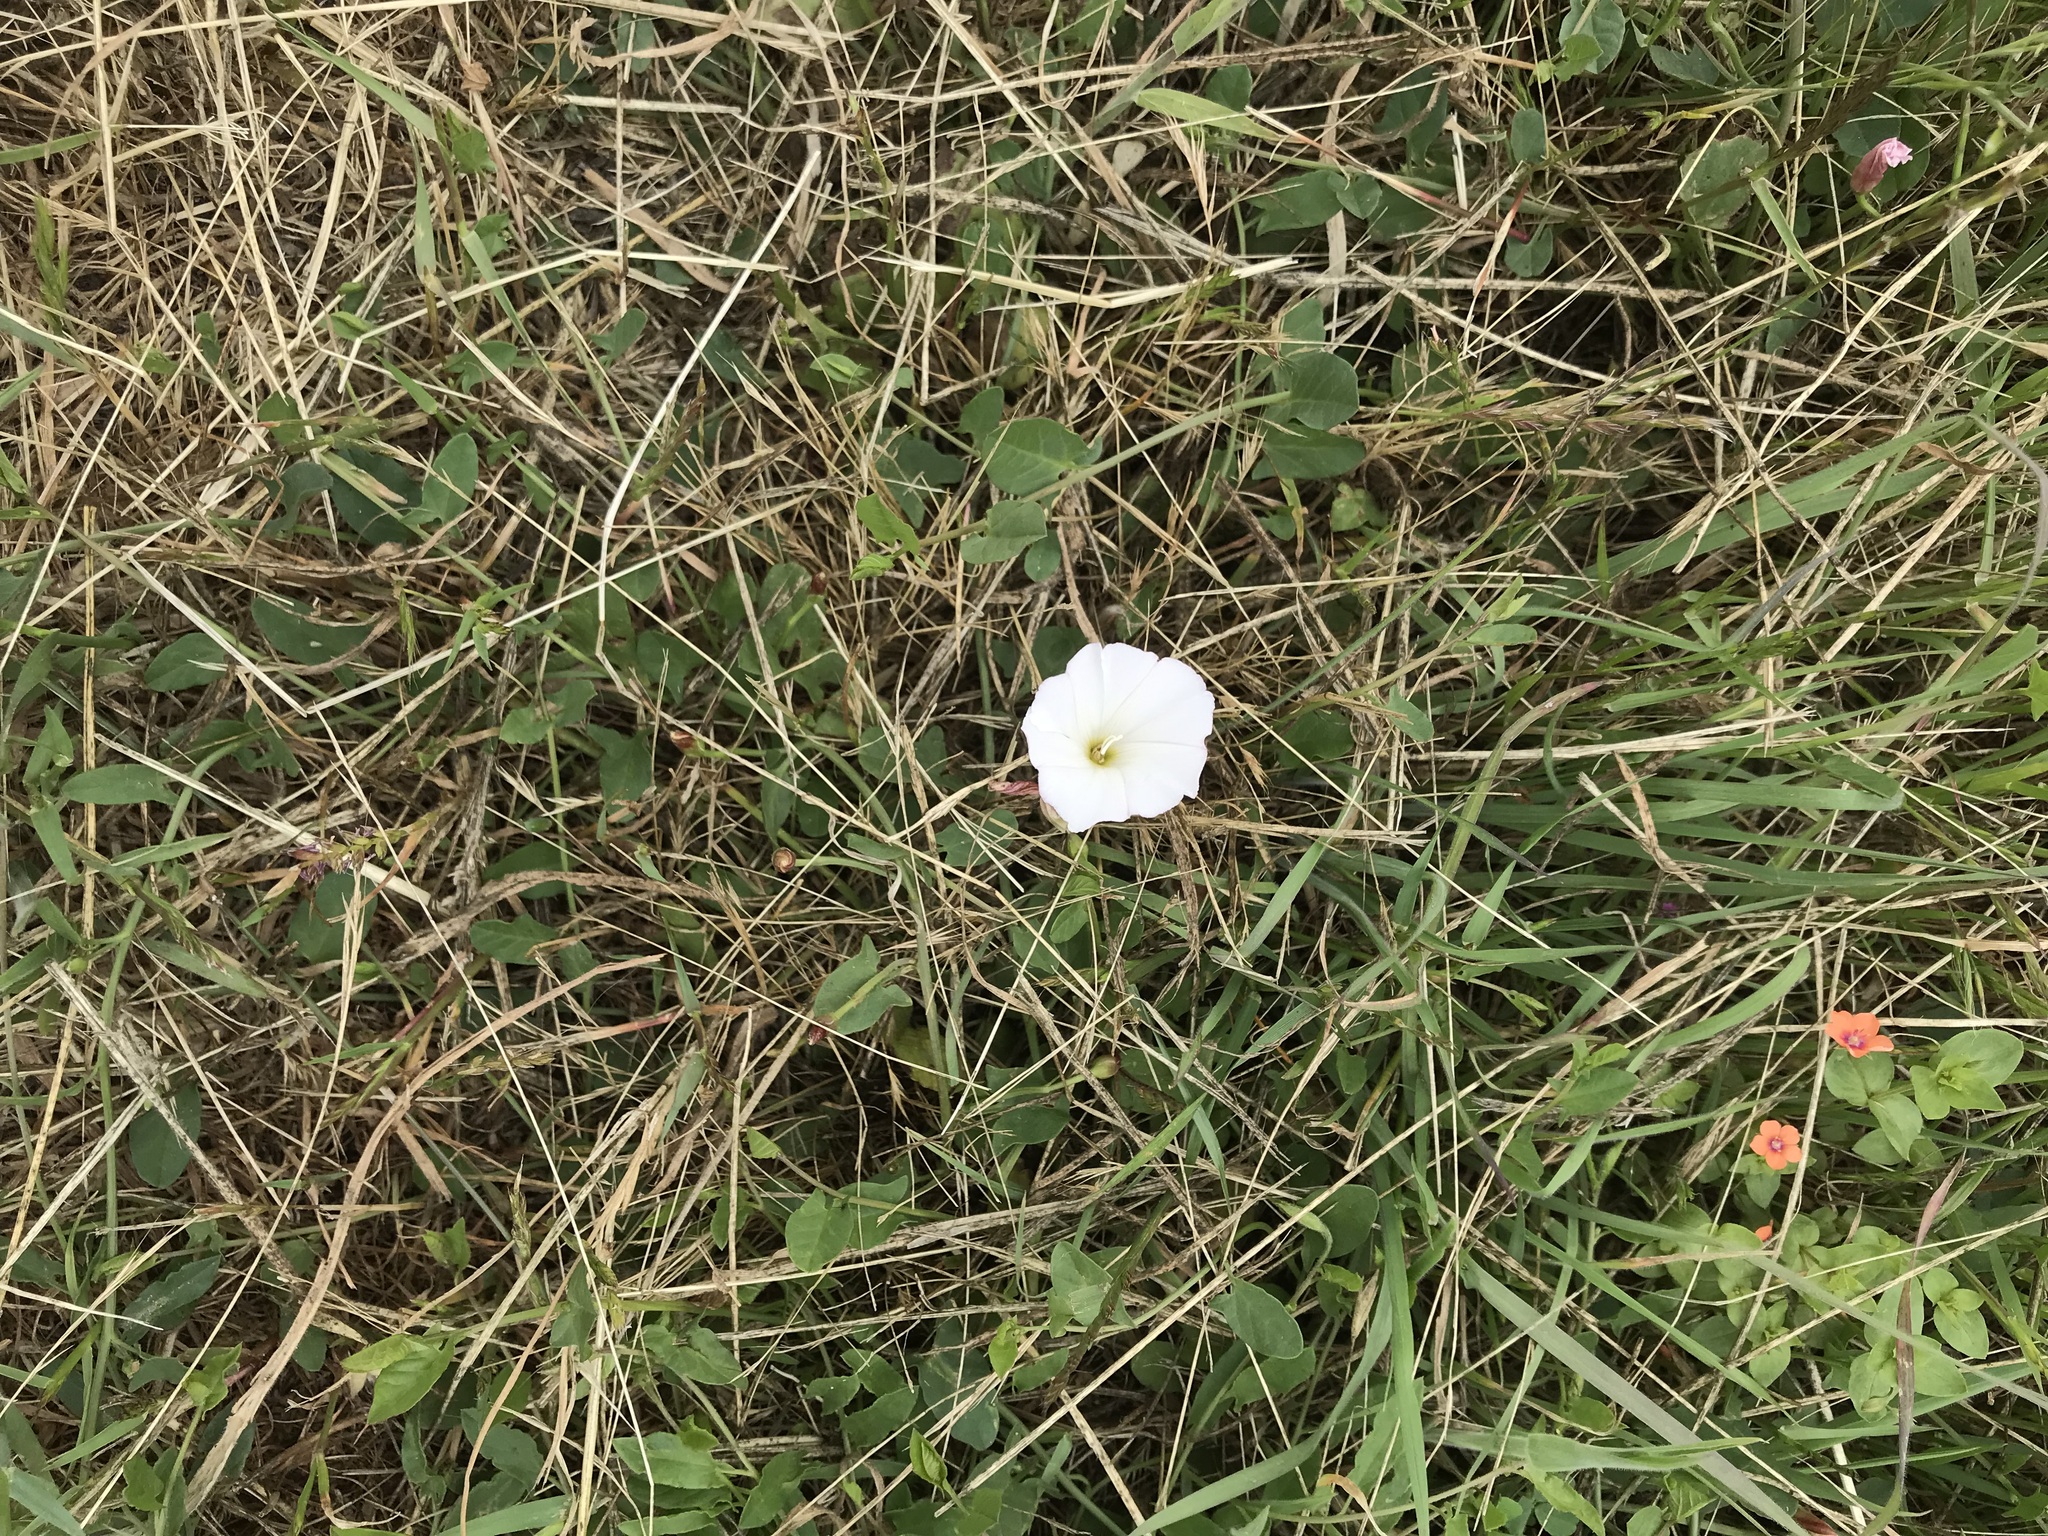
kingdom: Plantae
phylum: Tracheophyta
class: Magnoliopsida
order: Solanales
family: Convolvulaceae
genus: Convolvulus
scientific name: Convolvulus arvensis
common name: Field bindweed
